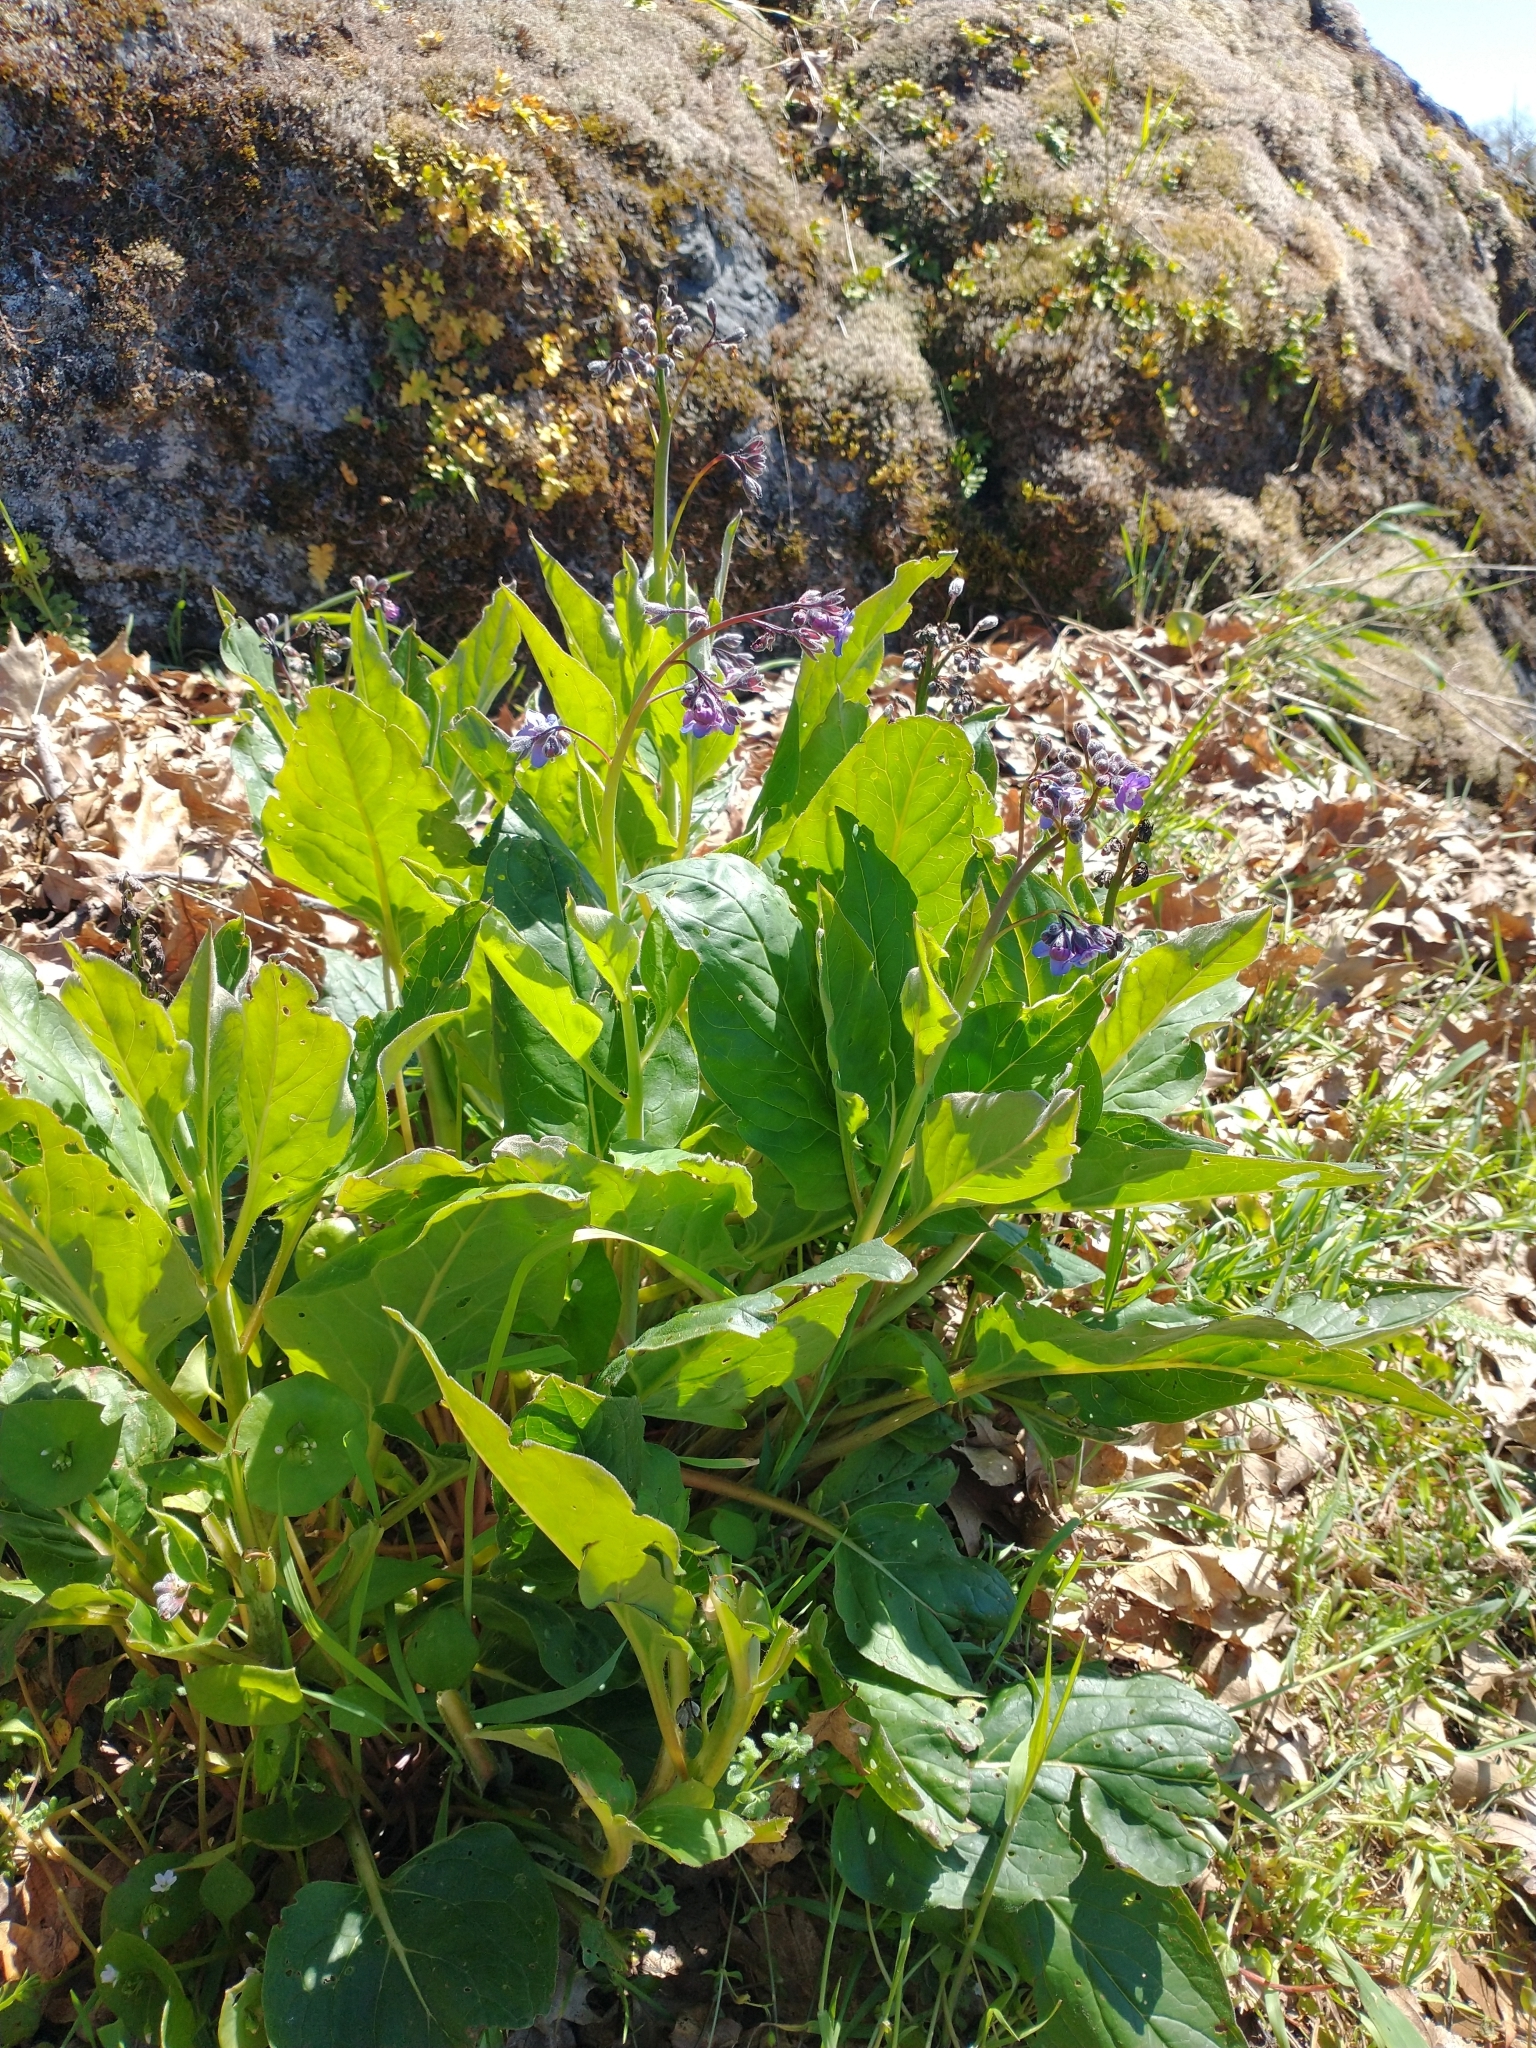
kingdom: Plantae
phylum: Tracheophyta
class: Magnoliopsida
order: Boraginales
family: Boraginaceae
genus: Adelinia
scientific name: Adelinia grande
